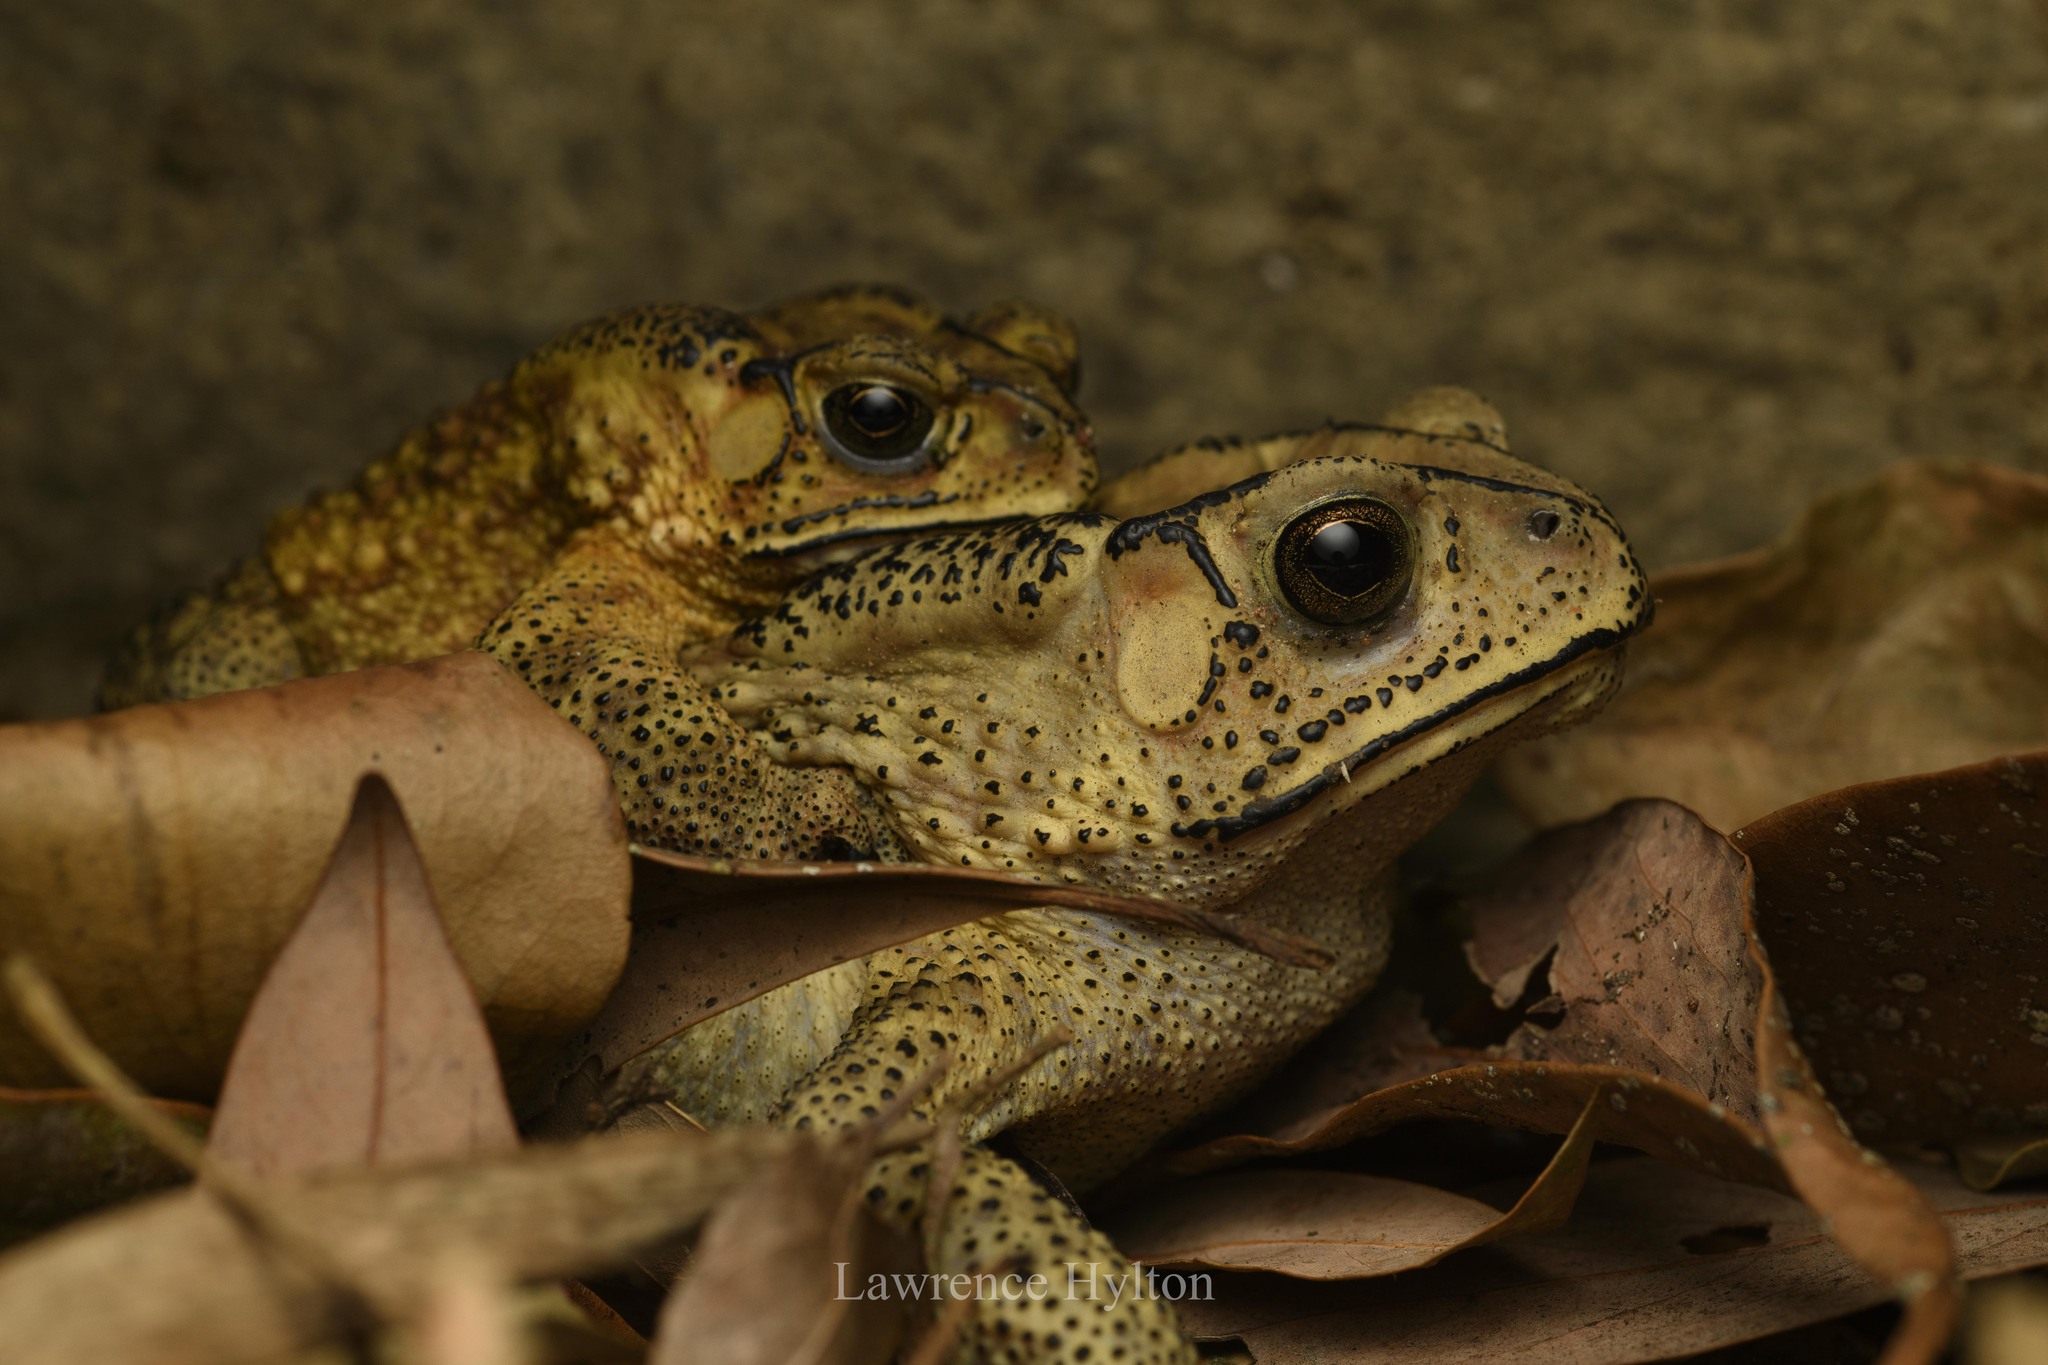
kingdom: Animalia
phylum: Chordata
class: Amphibia
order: Anura
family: Bufonidae
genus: Duttaphrynus
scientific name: Duttaphrynus melanostictus
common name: Common sunda toad
